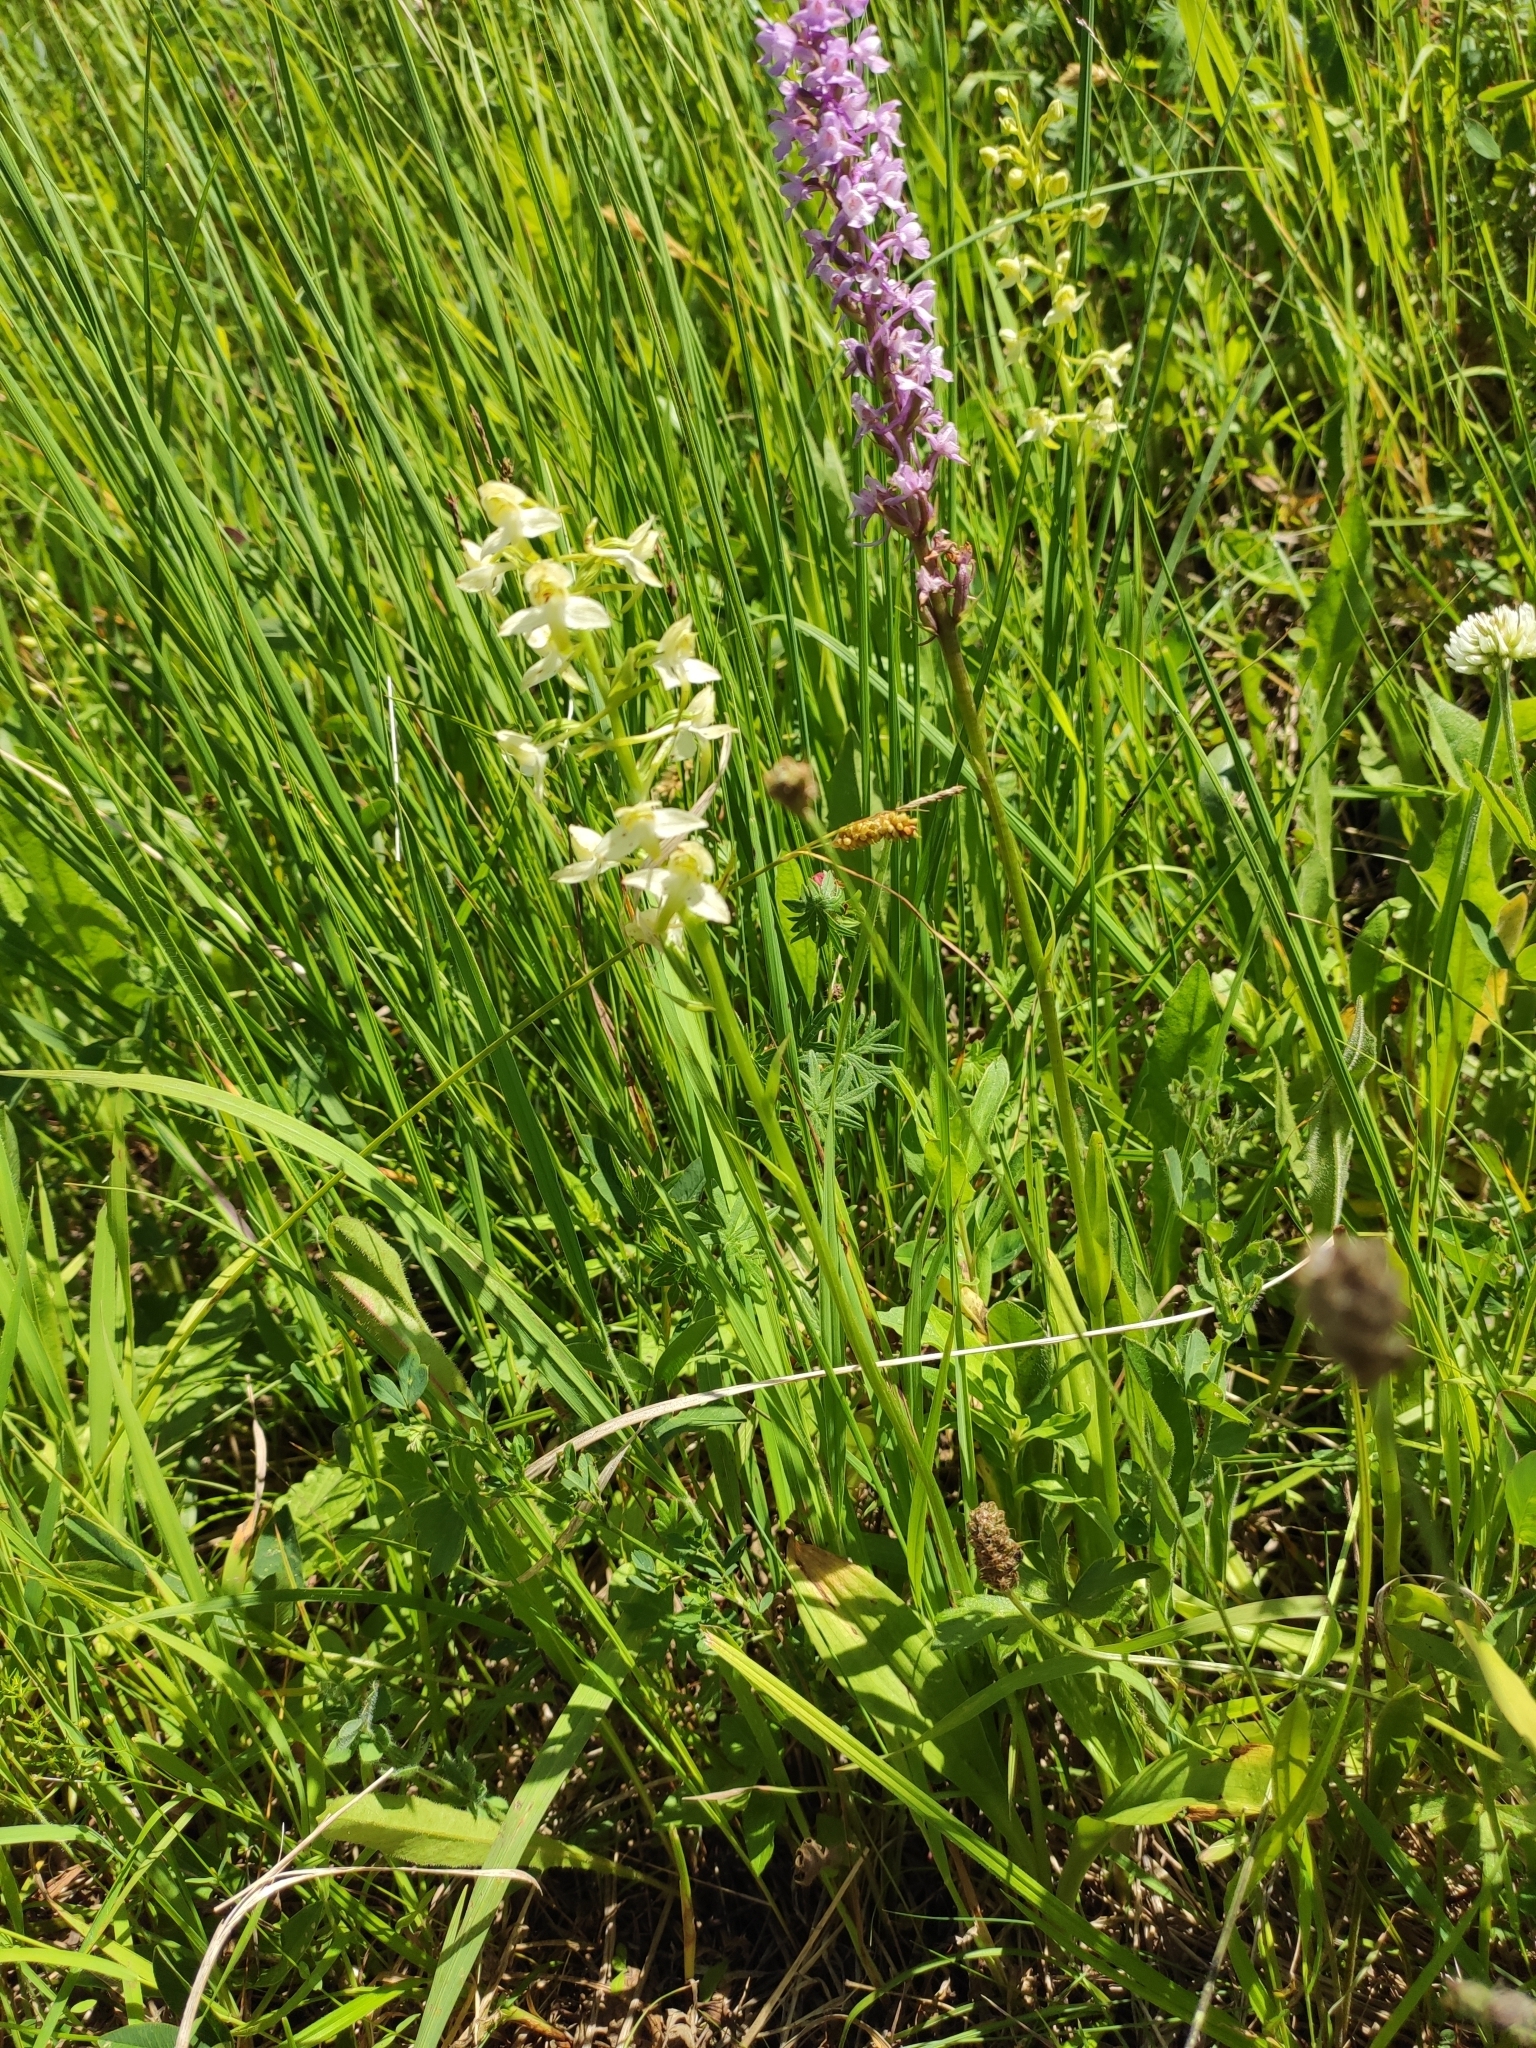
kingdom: Plantae
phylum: Tracheophyta
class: Liliopsida
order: Asparagales
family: Orchidaceae
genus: Platanthera
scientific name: Platanthera chlorantha
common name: Greater butterfly-orchid
